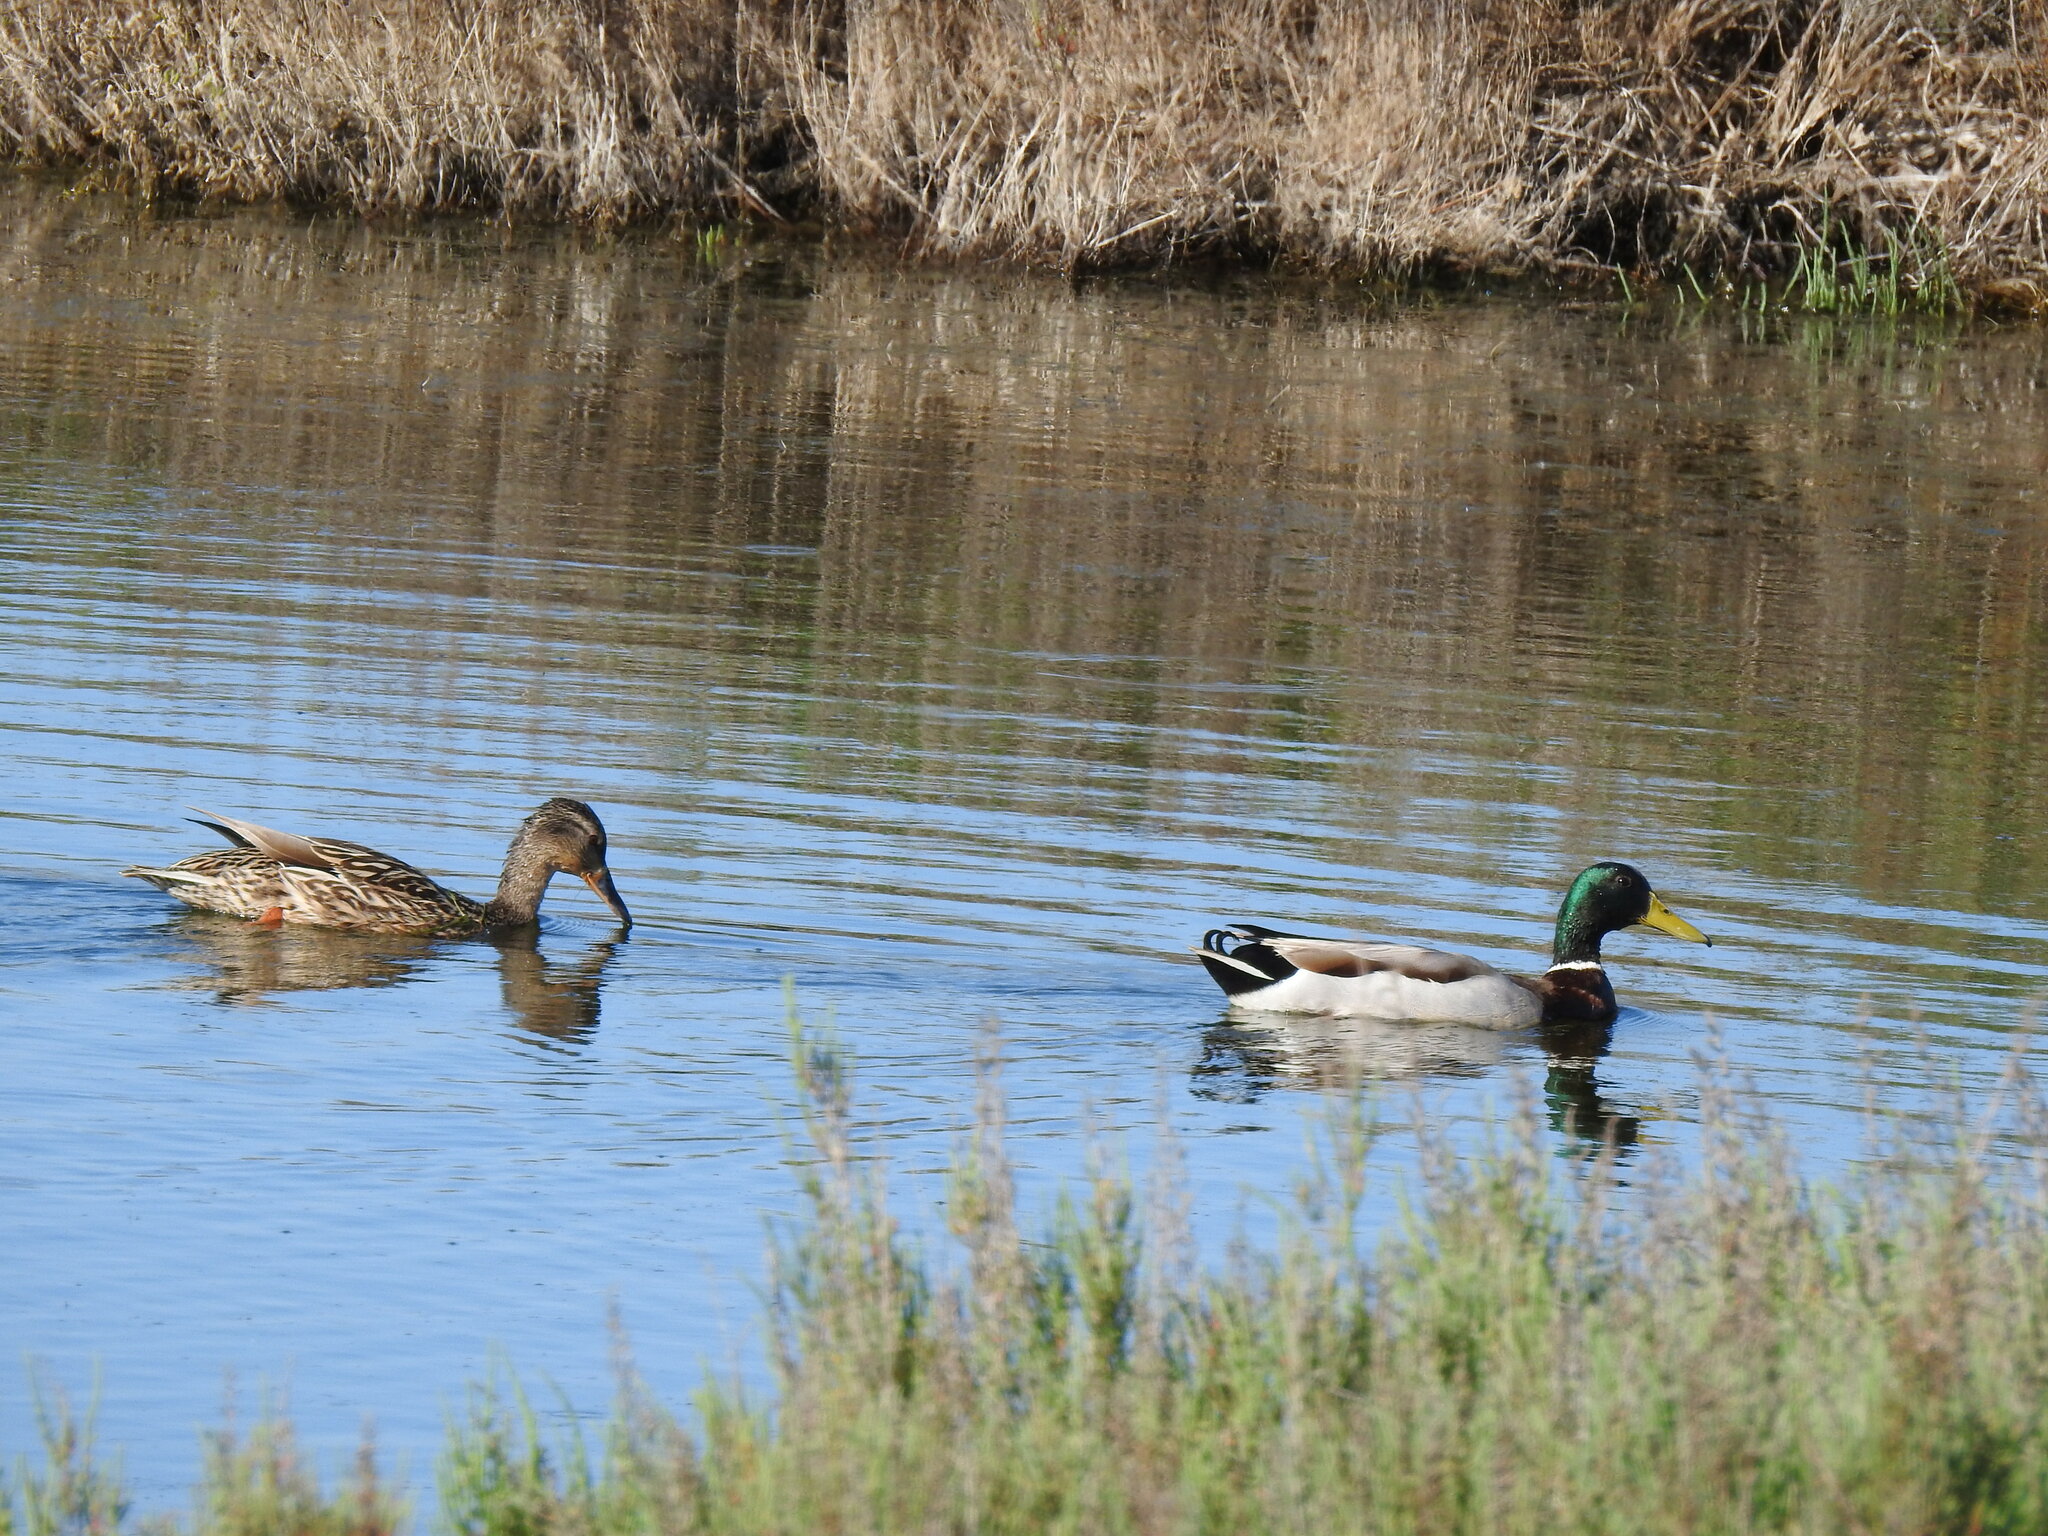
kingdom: Animalia
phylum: Chordata
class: Aves
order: Anseriformes
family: Anatidae
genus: Anas
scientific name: Anas platyrhynchos
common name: Mallard
